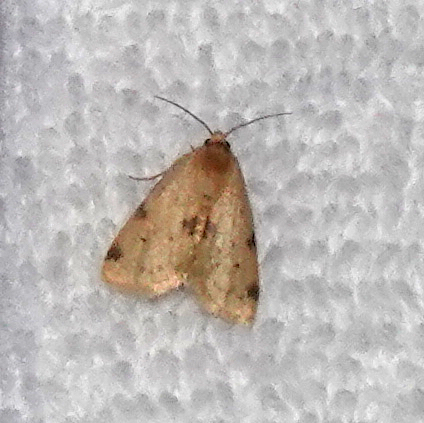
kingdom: Animalia
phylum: Arthropoda
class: Insecta
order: Lepidoptera
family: Noctuidae
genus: Azenia
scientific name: Azenia procida
